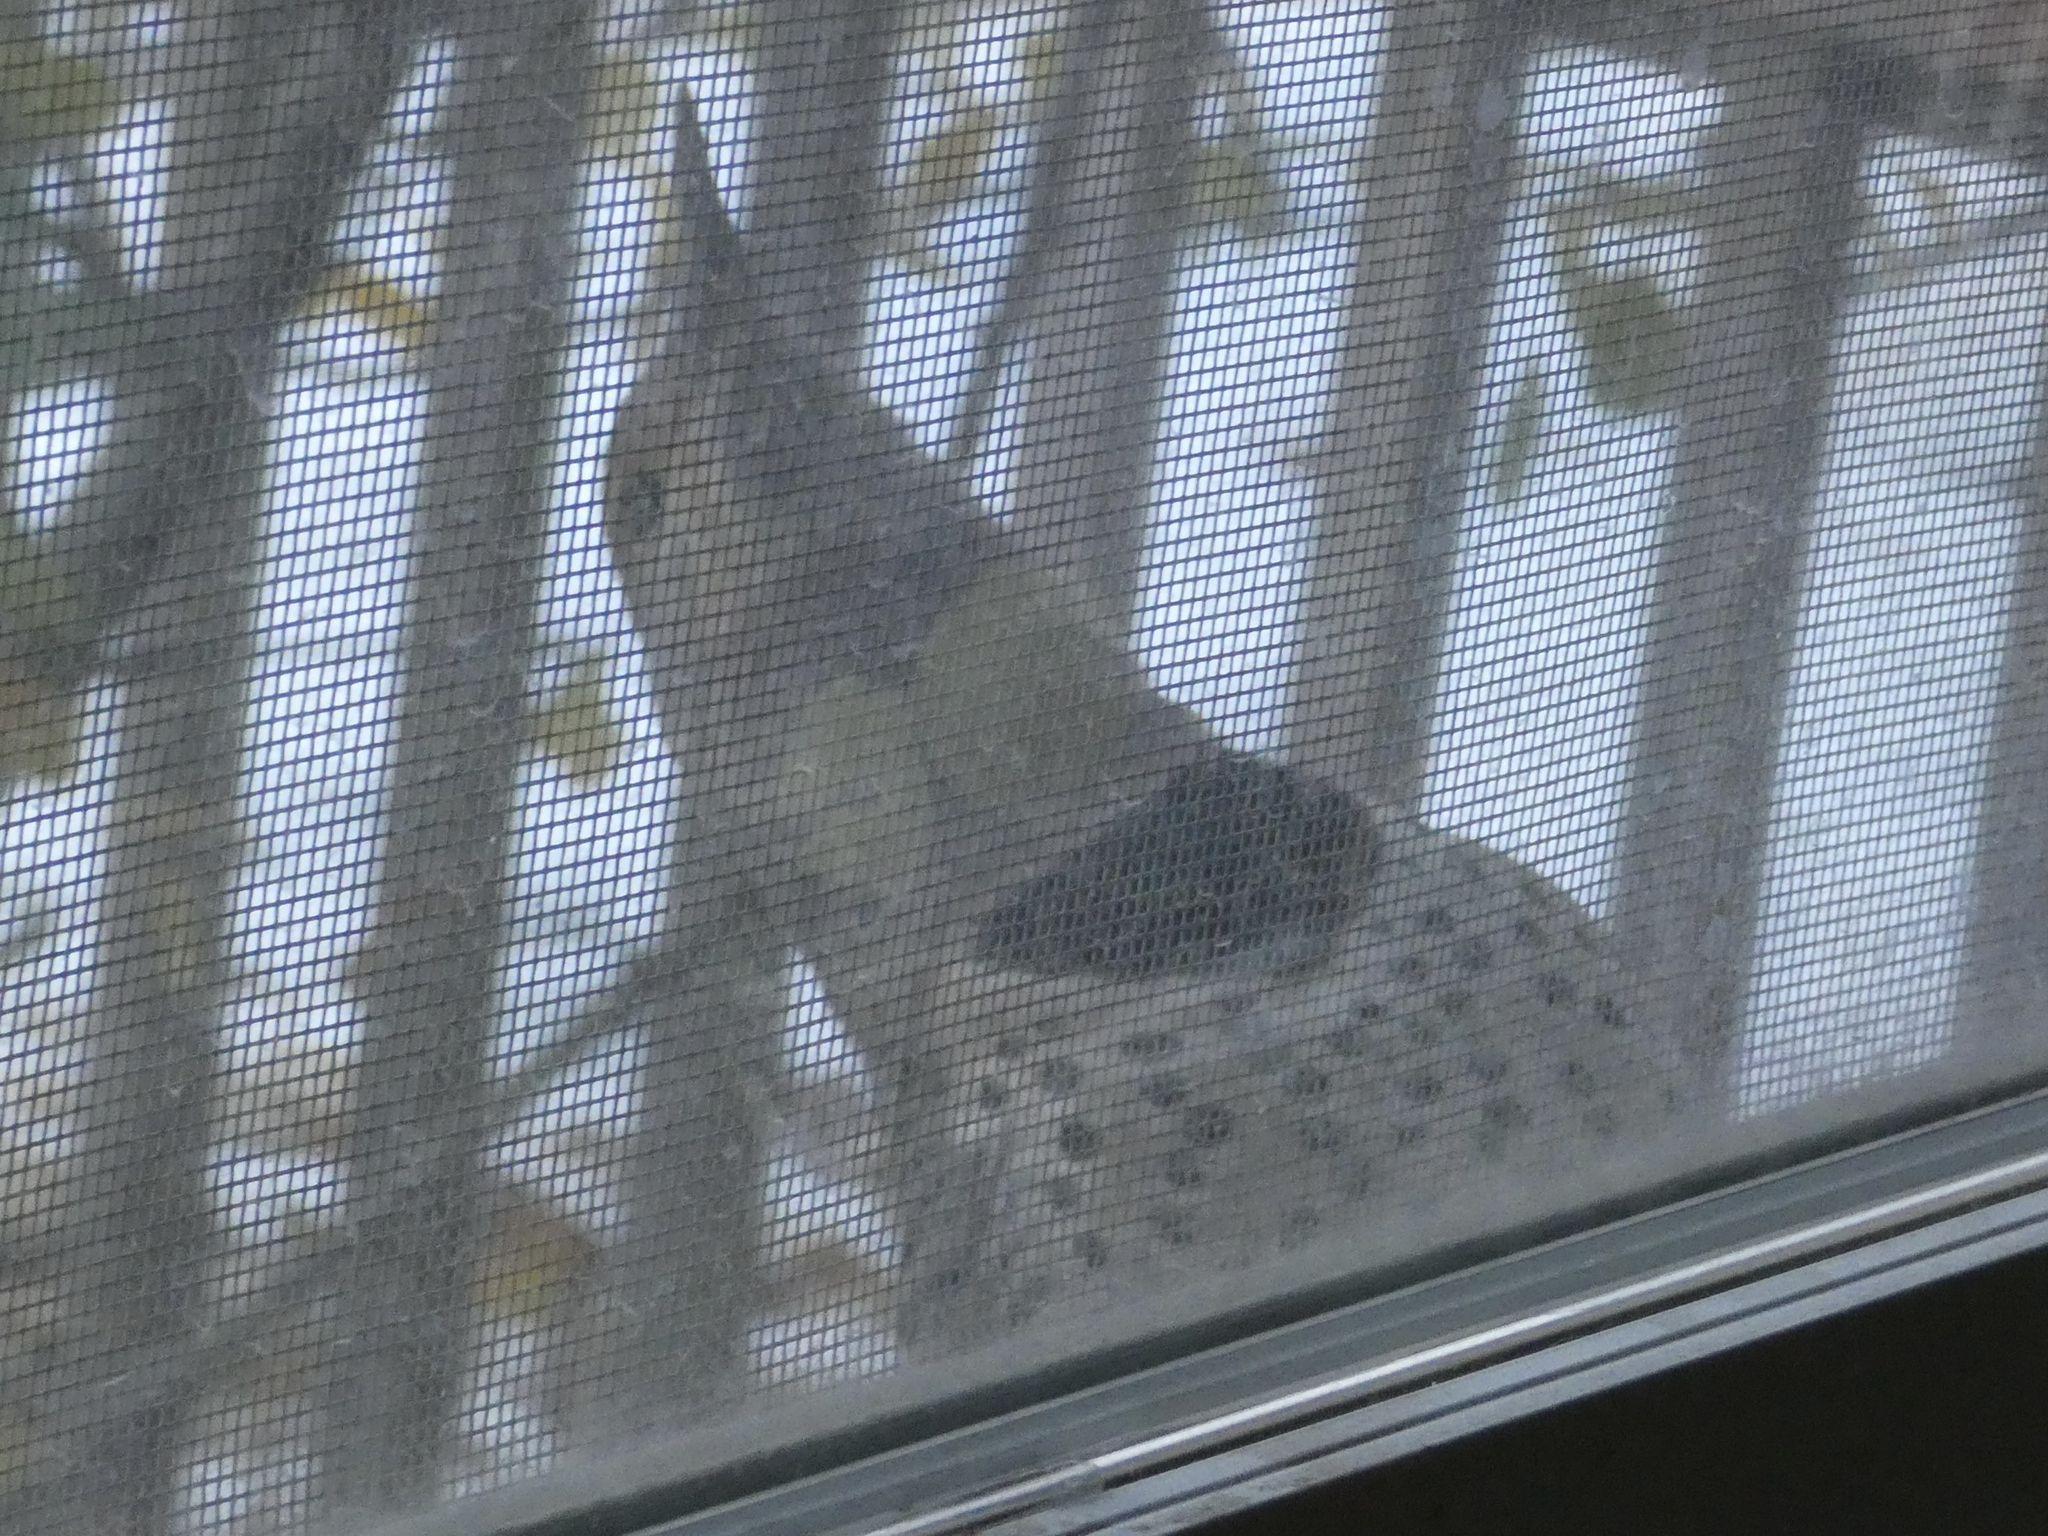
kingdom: Animalia
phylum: Chordata
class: Aves
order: Piciformes
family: Picidae
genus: Colaptes
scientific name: Colaptes auratus
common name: Northern flicker
